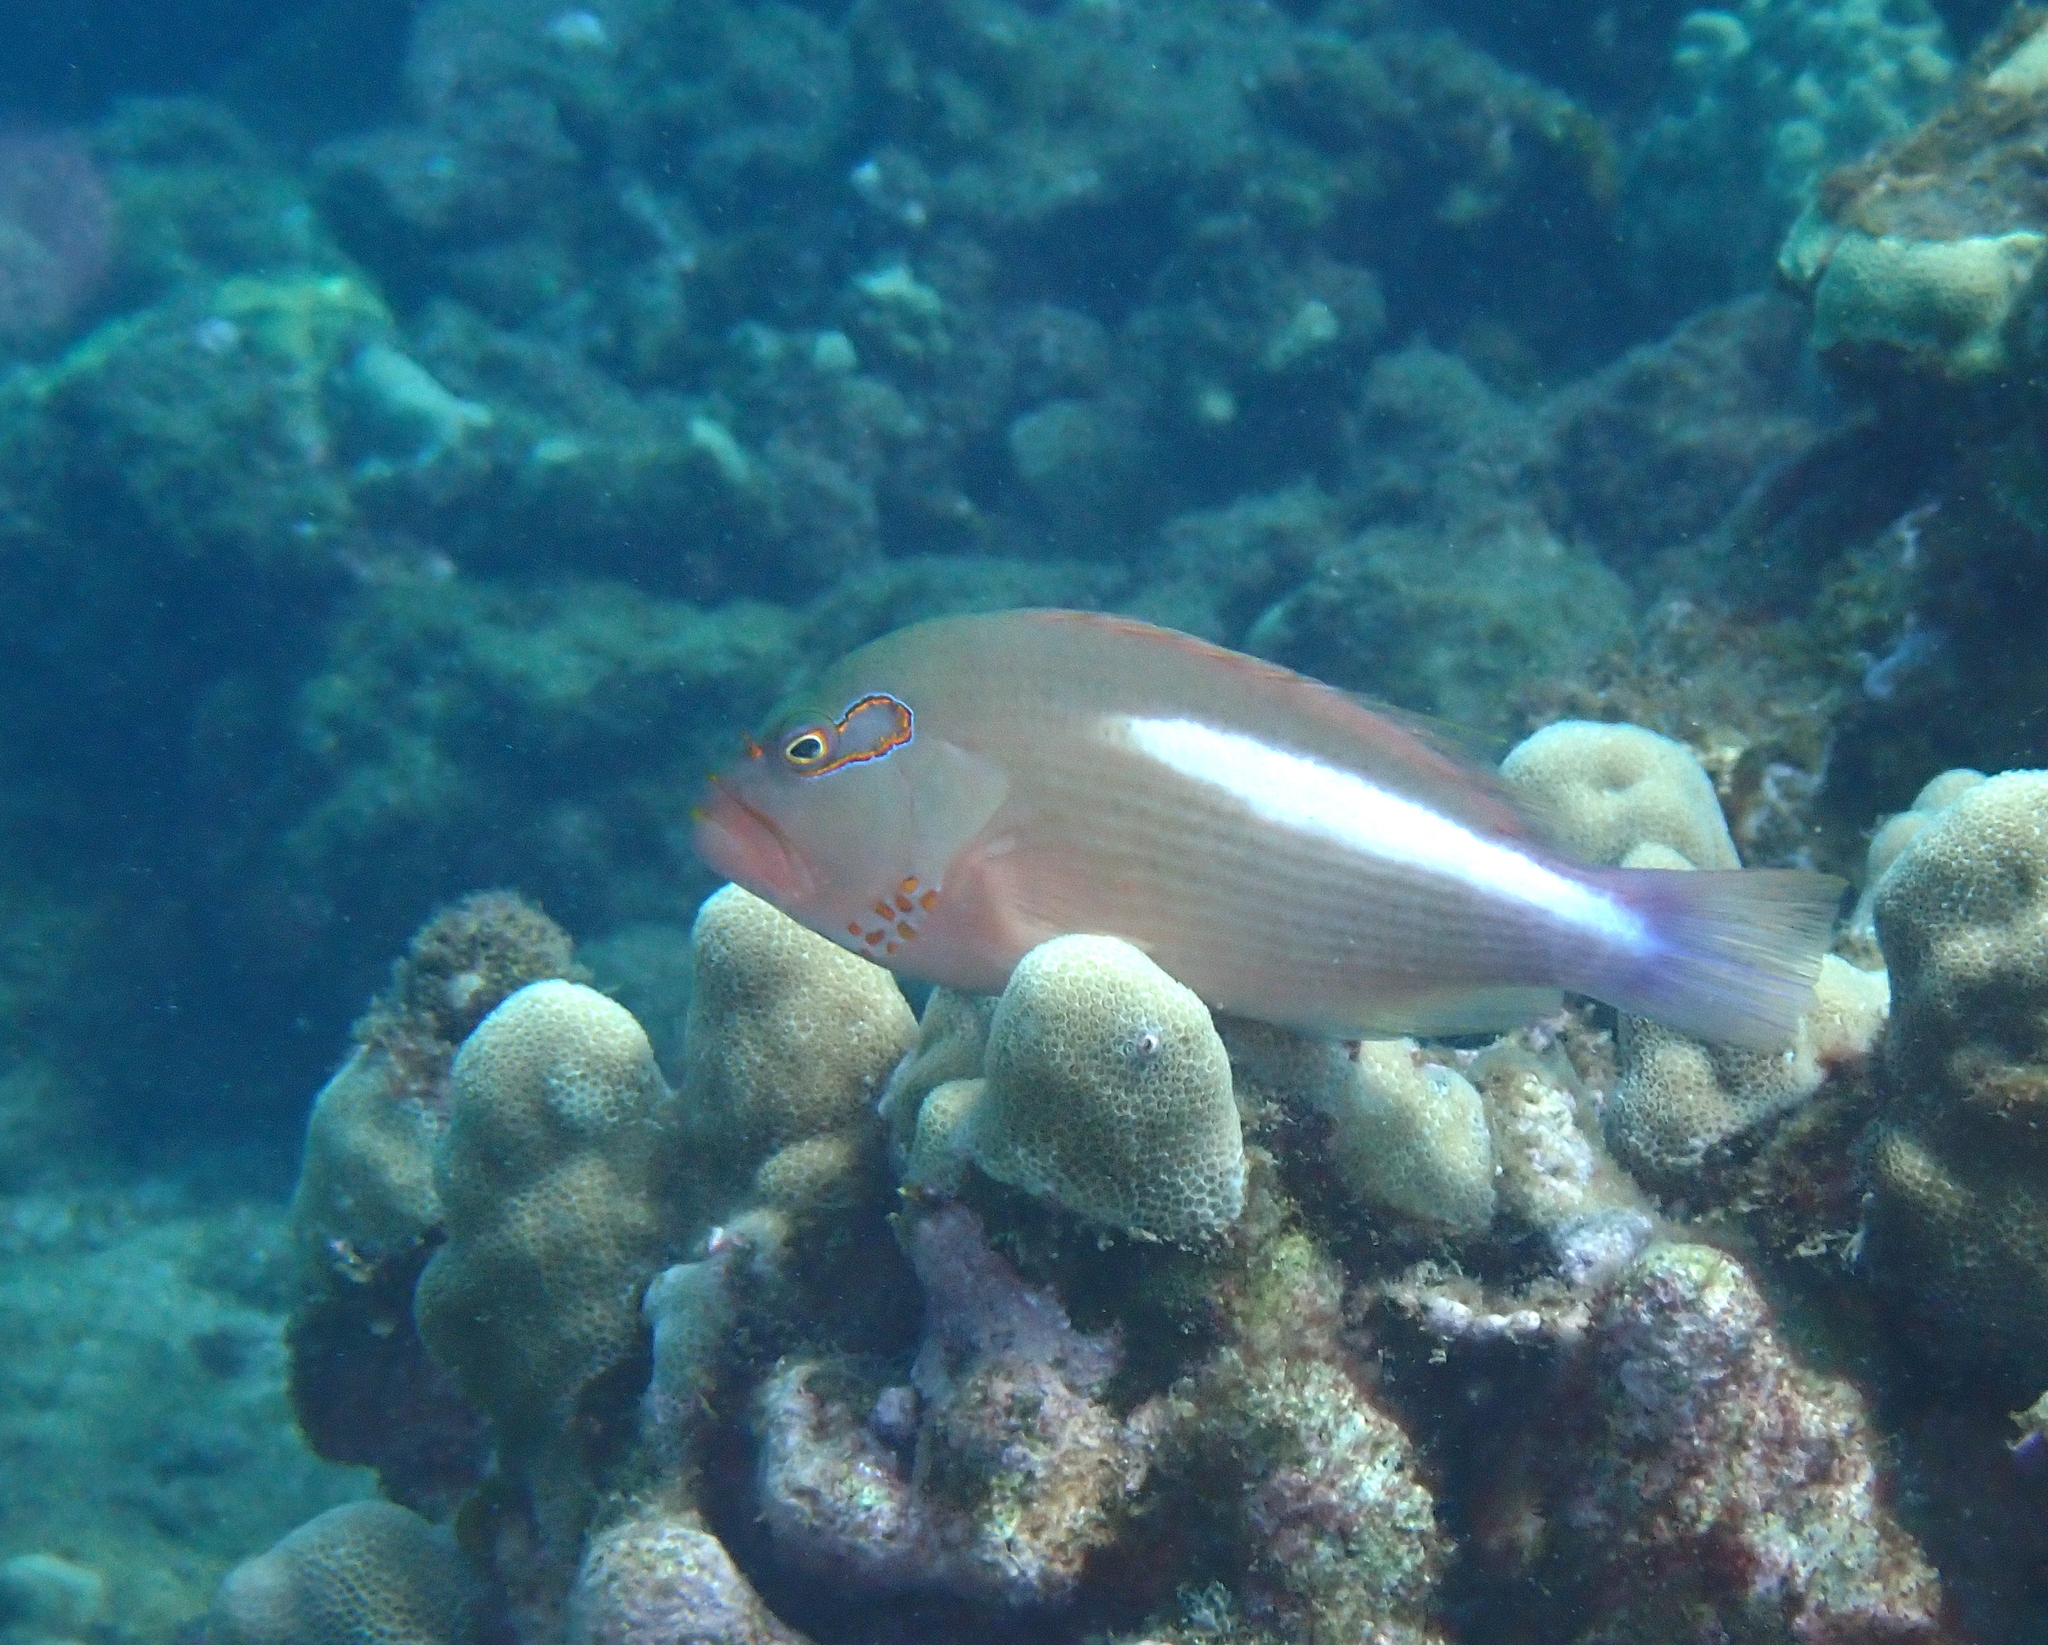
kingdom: Animalia
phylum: Chordata
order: Perciformes
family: Cirrhitidae
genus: Paracirrhites
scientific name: Paracirrhites arcatus
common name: Arc-eye hawkfish
